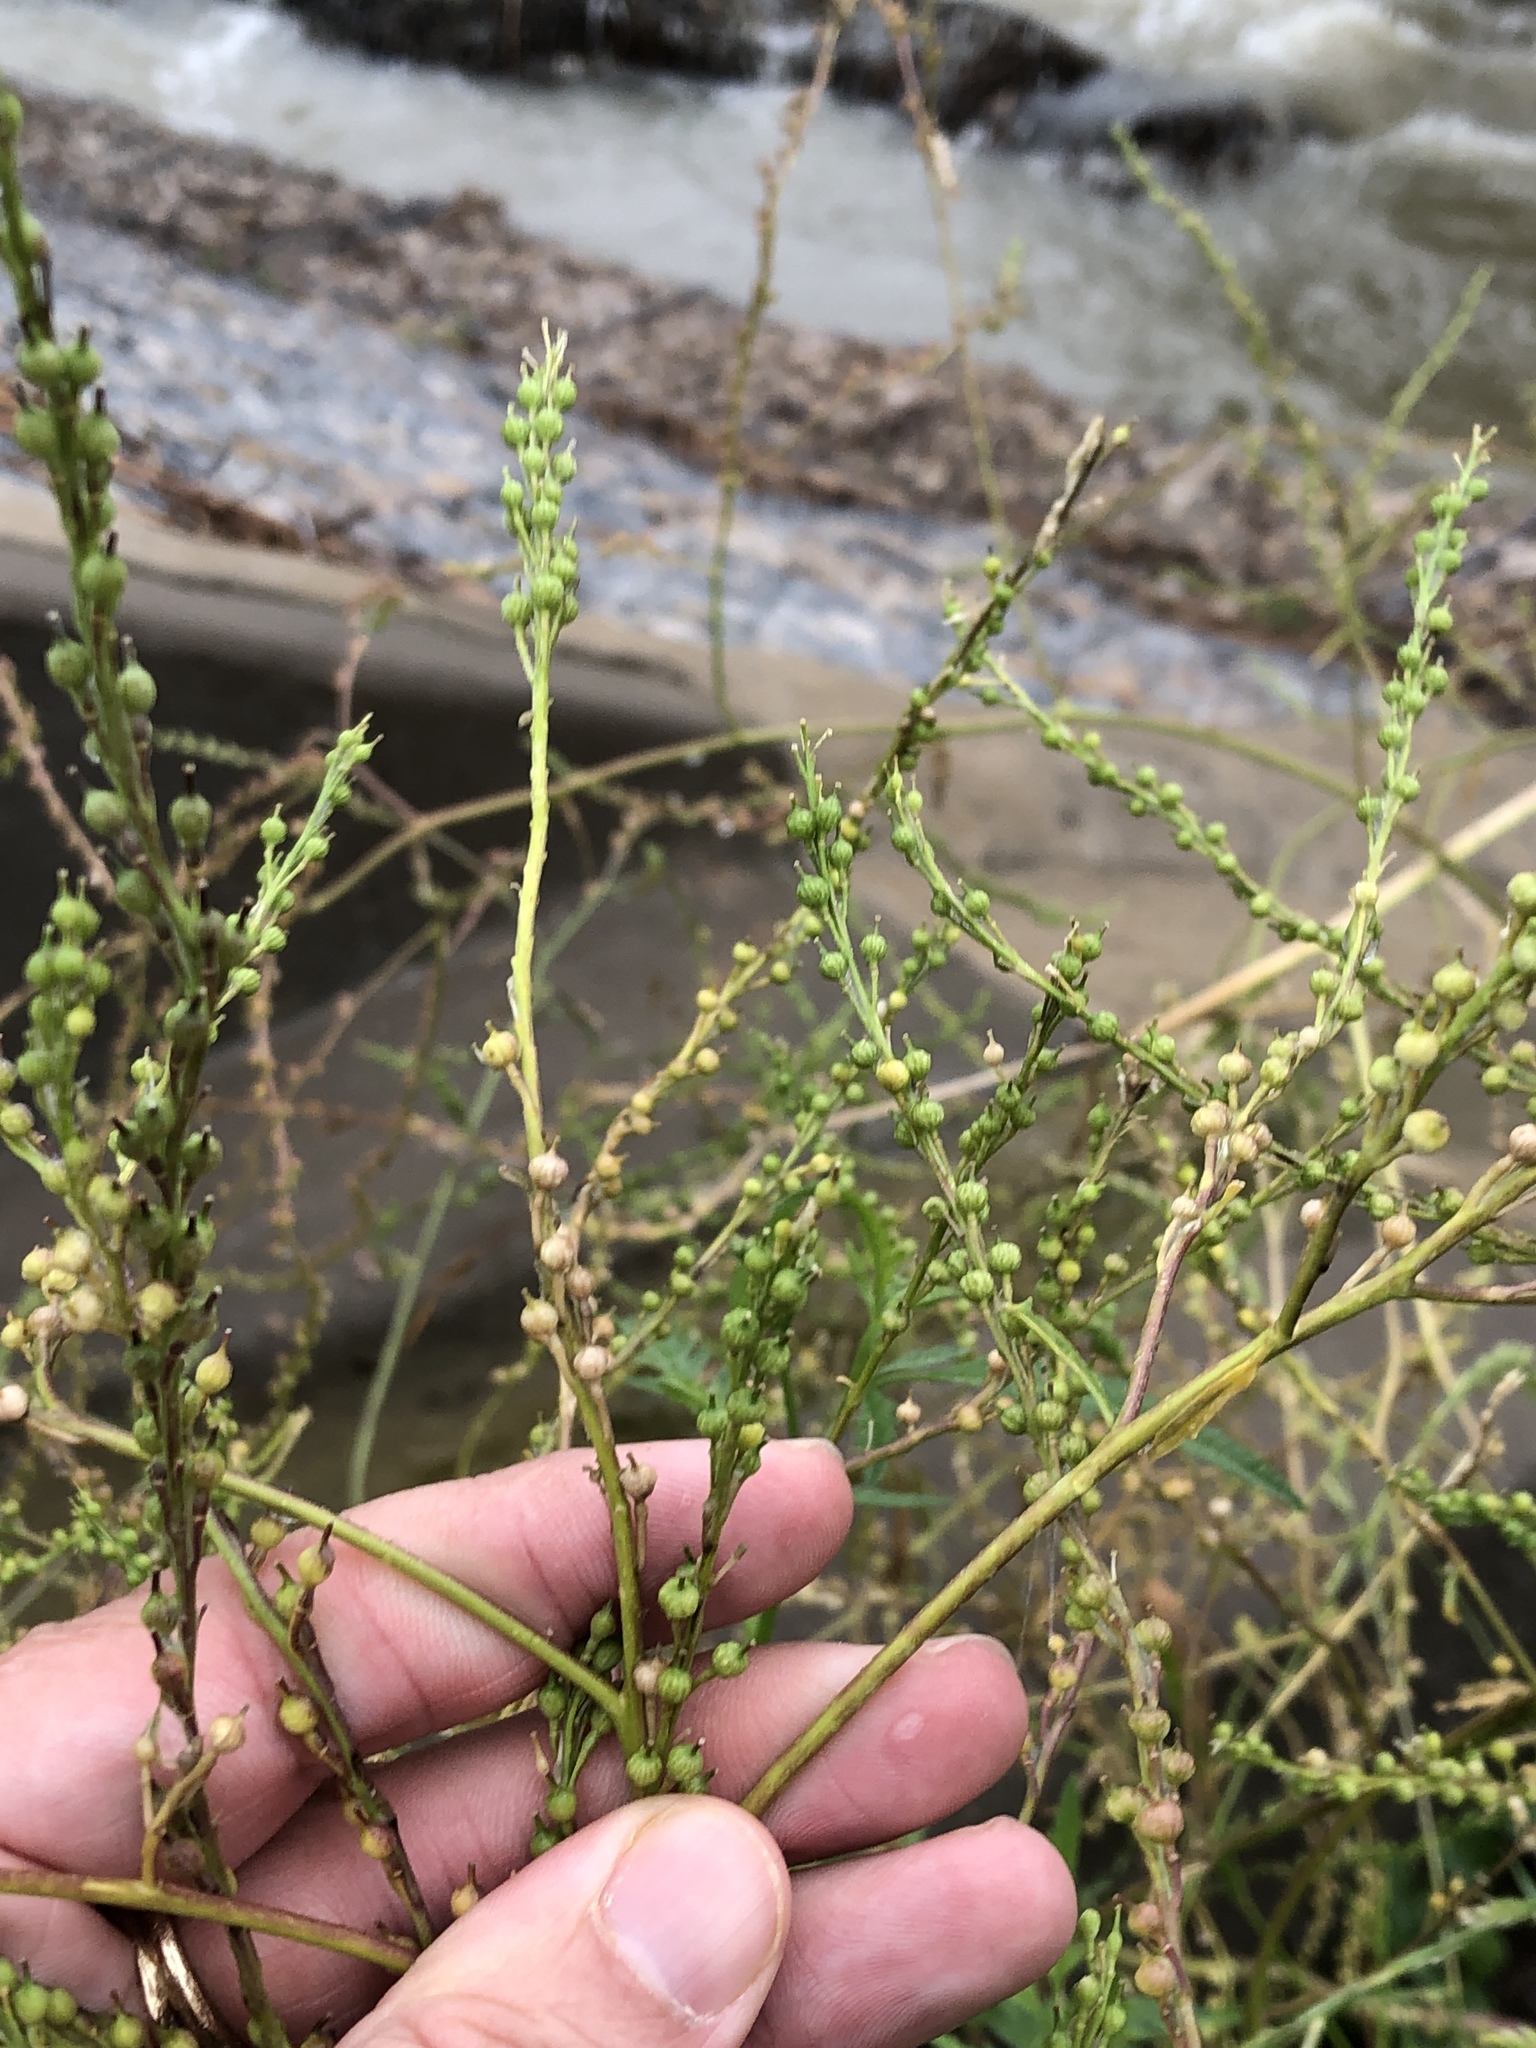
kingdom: Plantae
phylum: Tracheophyta
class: Magnoliopsida
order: Brassicales
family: Brassicaceae
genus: Rapistrum
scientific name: Rapistrum rugosum
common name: Annual bastardcabbage
